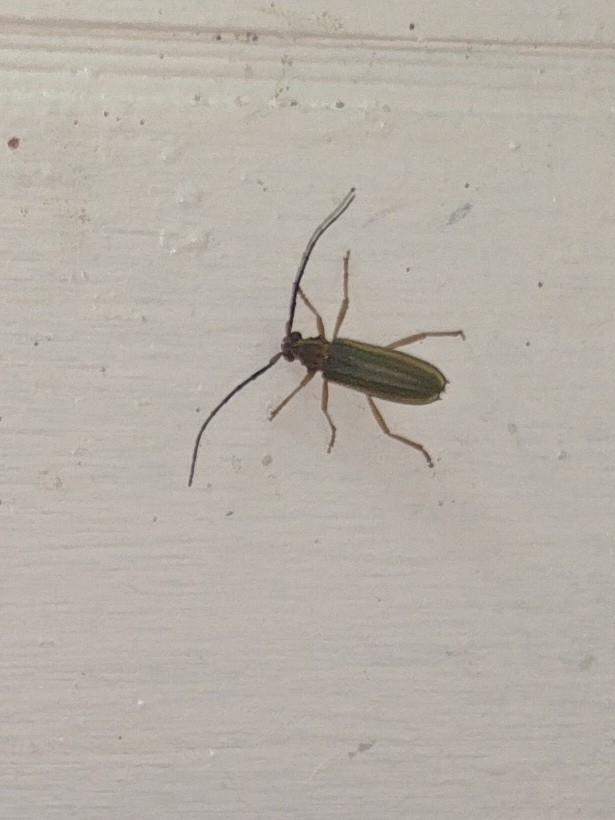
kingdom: Animalia
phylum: Arthropoda
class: Insecta
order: Coleoptera
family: Cerambycidae
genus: Chlorida
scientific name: Chlorida festiva
